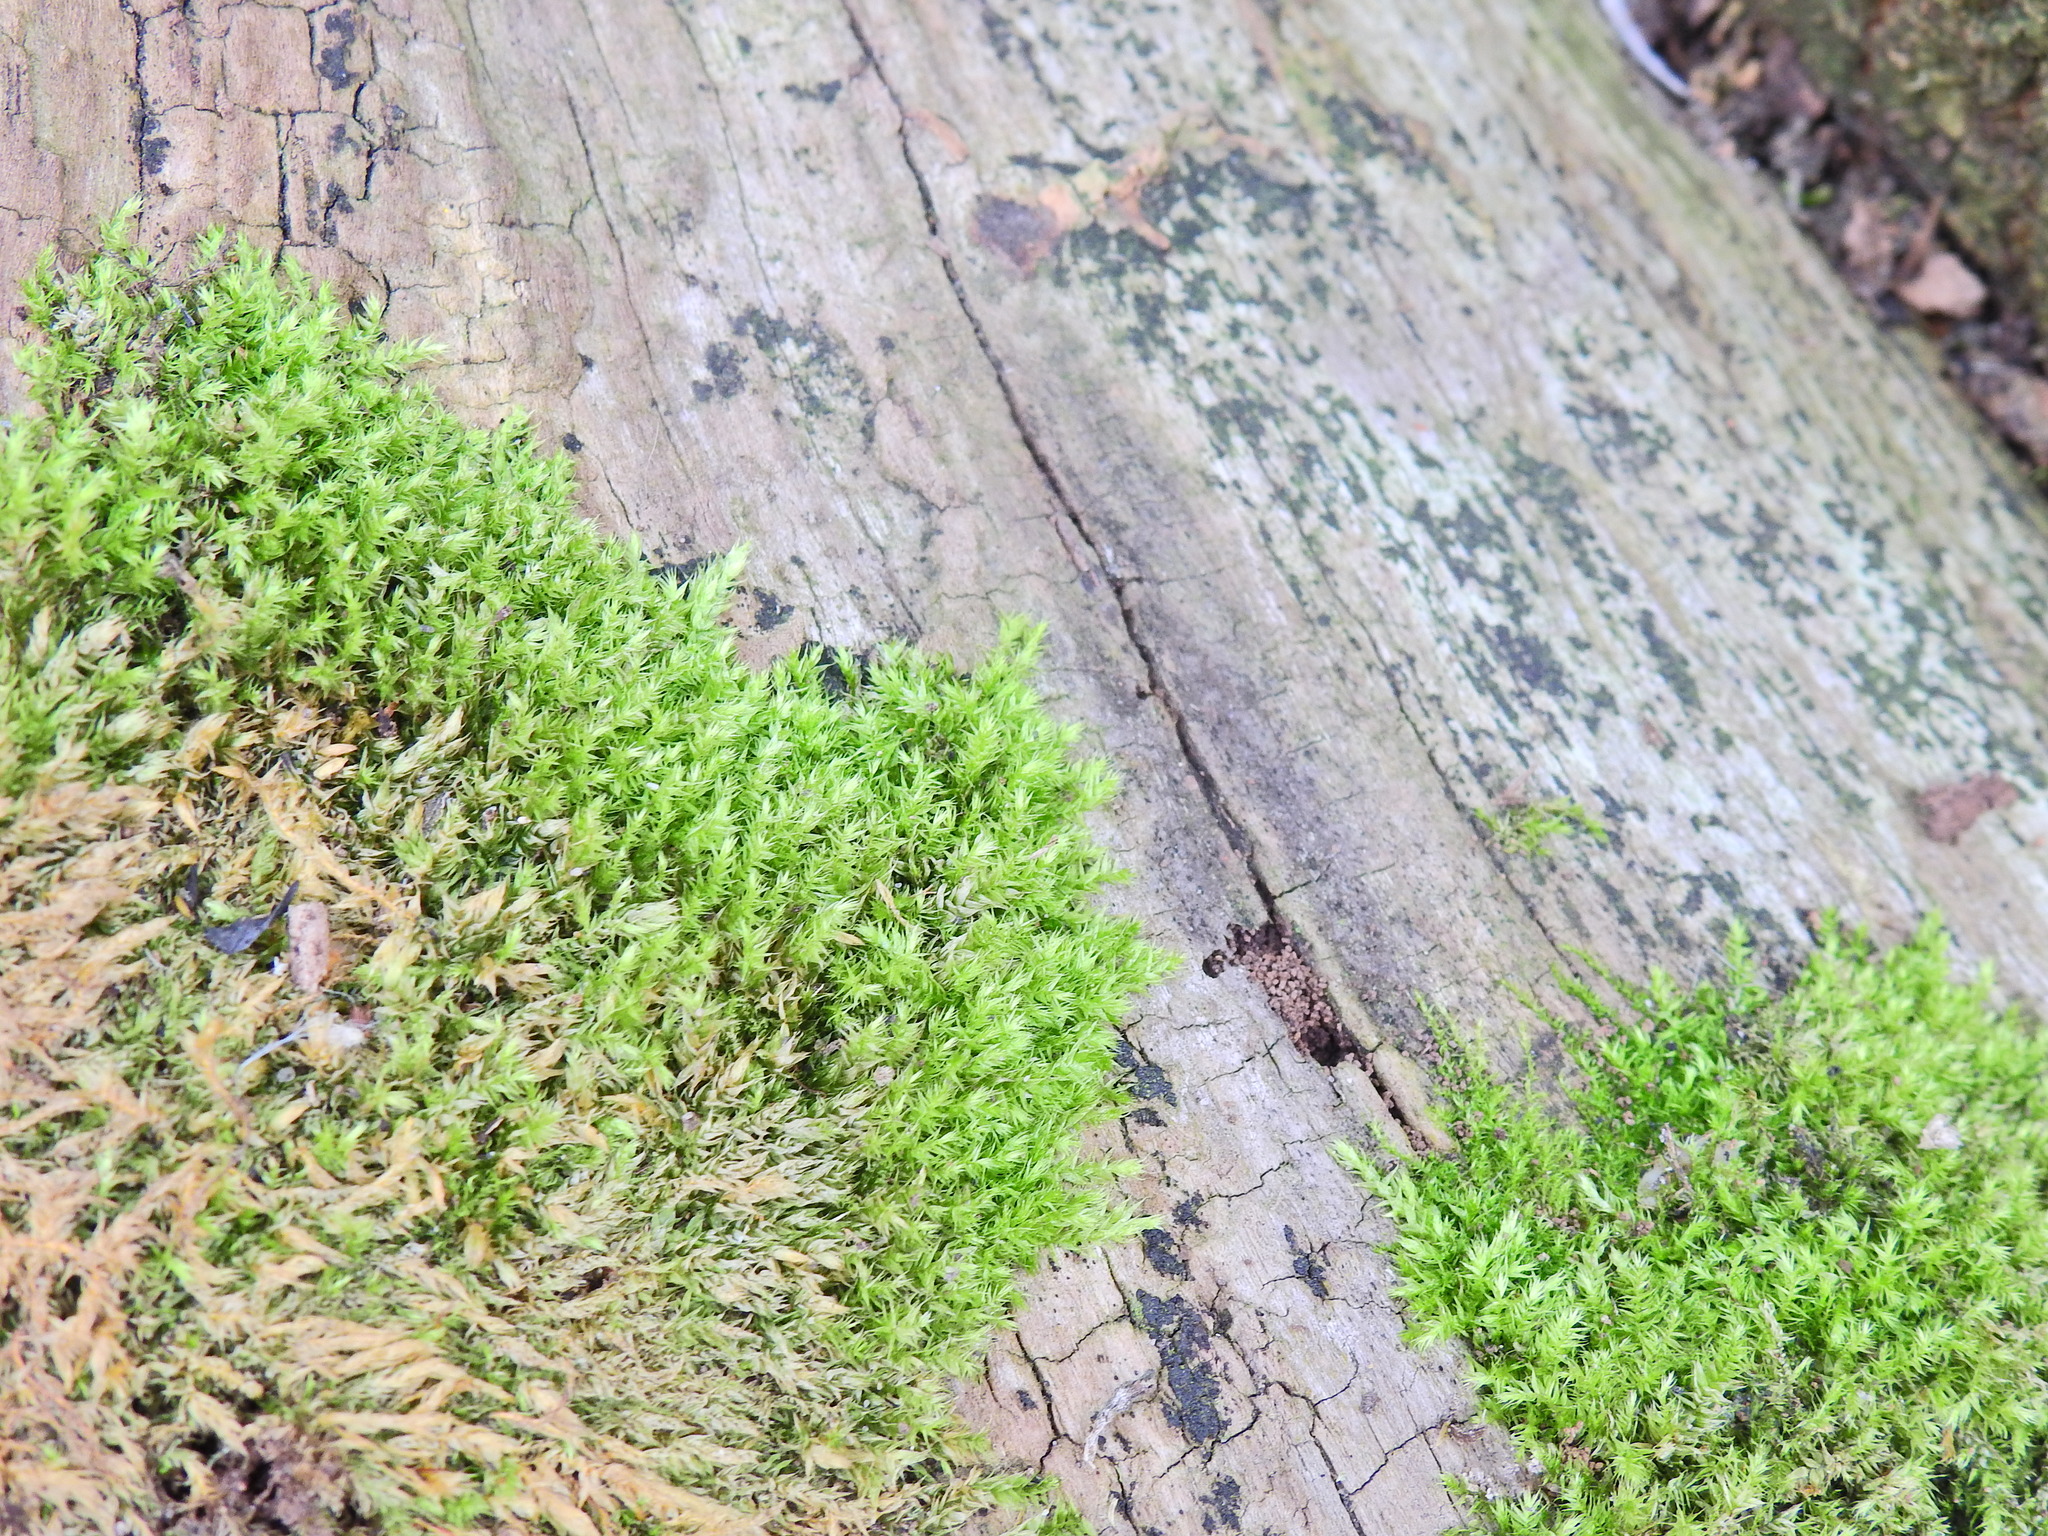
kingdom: Plantae
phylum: Bryophyta
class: Bryopsida
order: Hypnales
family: Hypnaceae
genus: Hypnum
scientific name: Hypnum cupressiforme
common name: Cypress-leaved plait-moss
